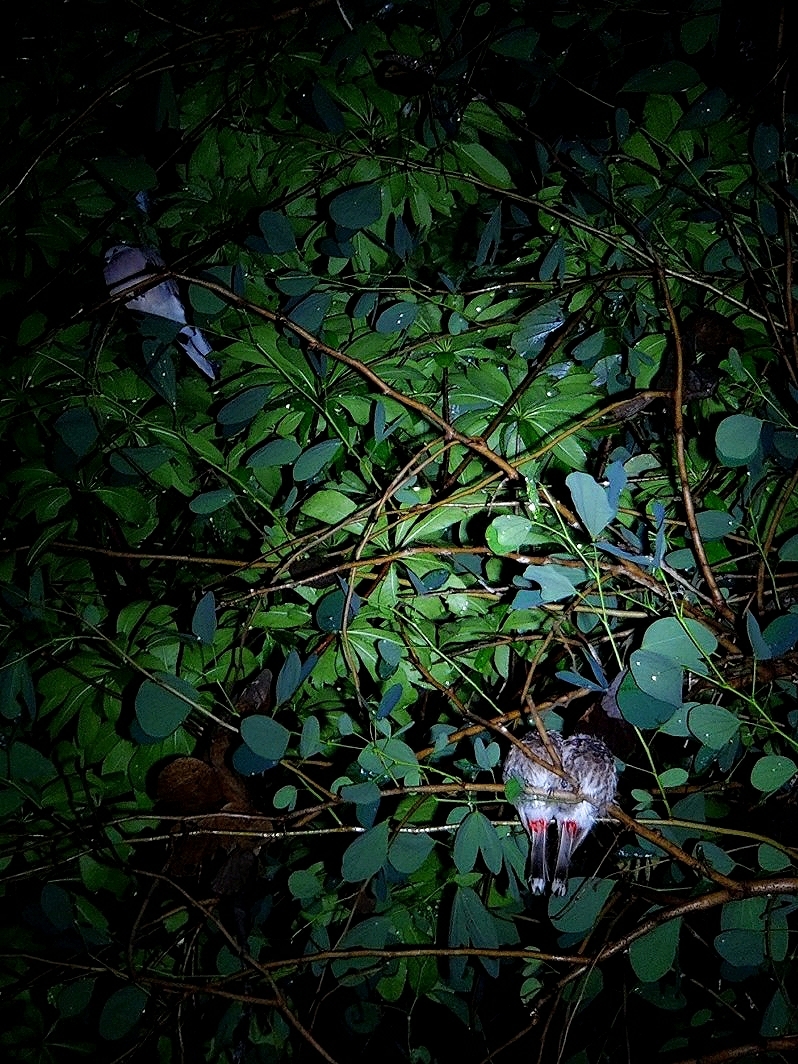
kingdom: Animalia
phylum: Chordata
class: Aves
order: Passeriformes
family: Pycnonotidae
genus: Pycnonotus
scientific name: Pycnonotus cafer
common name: Red-vented bulbul
